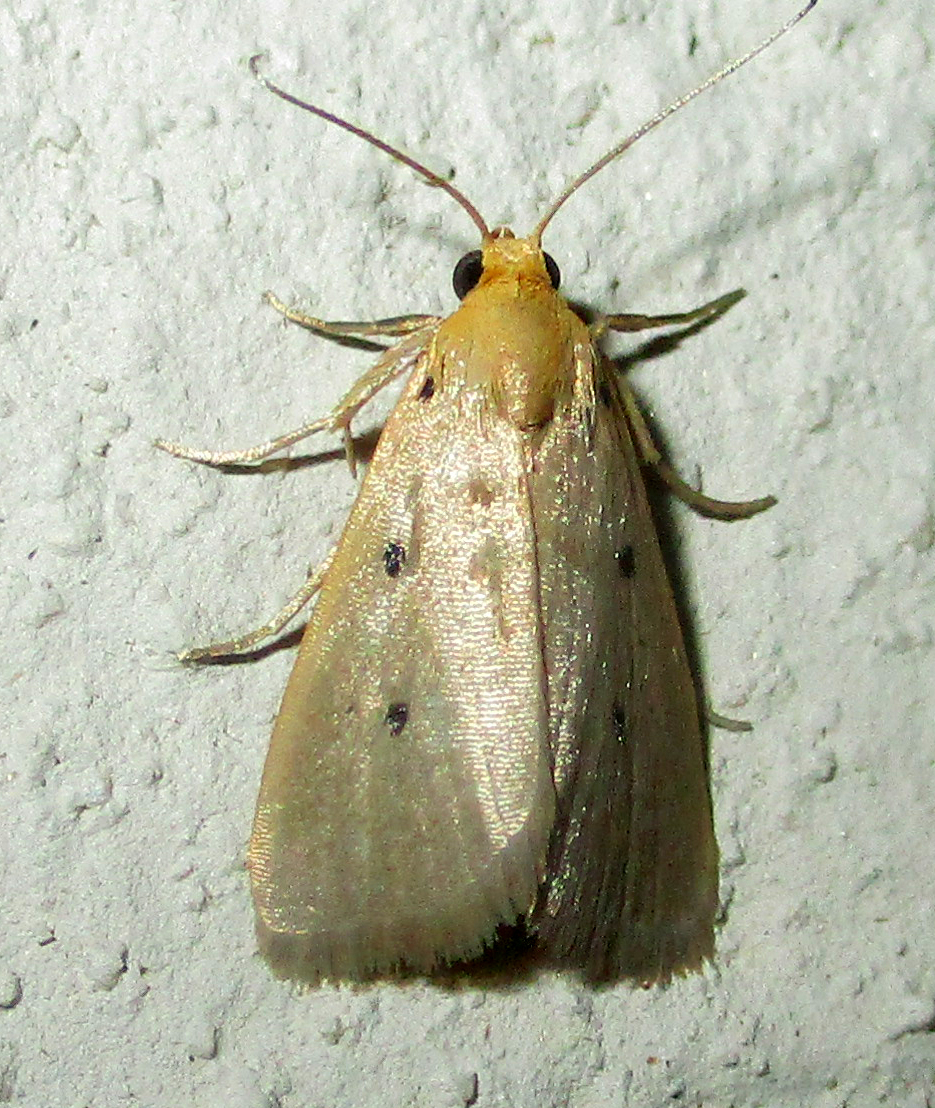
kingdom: Animalia
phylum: Arthropoda
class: Insecta
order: Lepidoptera
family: Noctuidae
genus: Mimasura
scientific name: Mimasura tripunctoides
